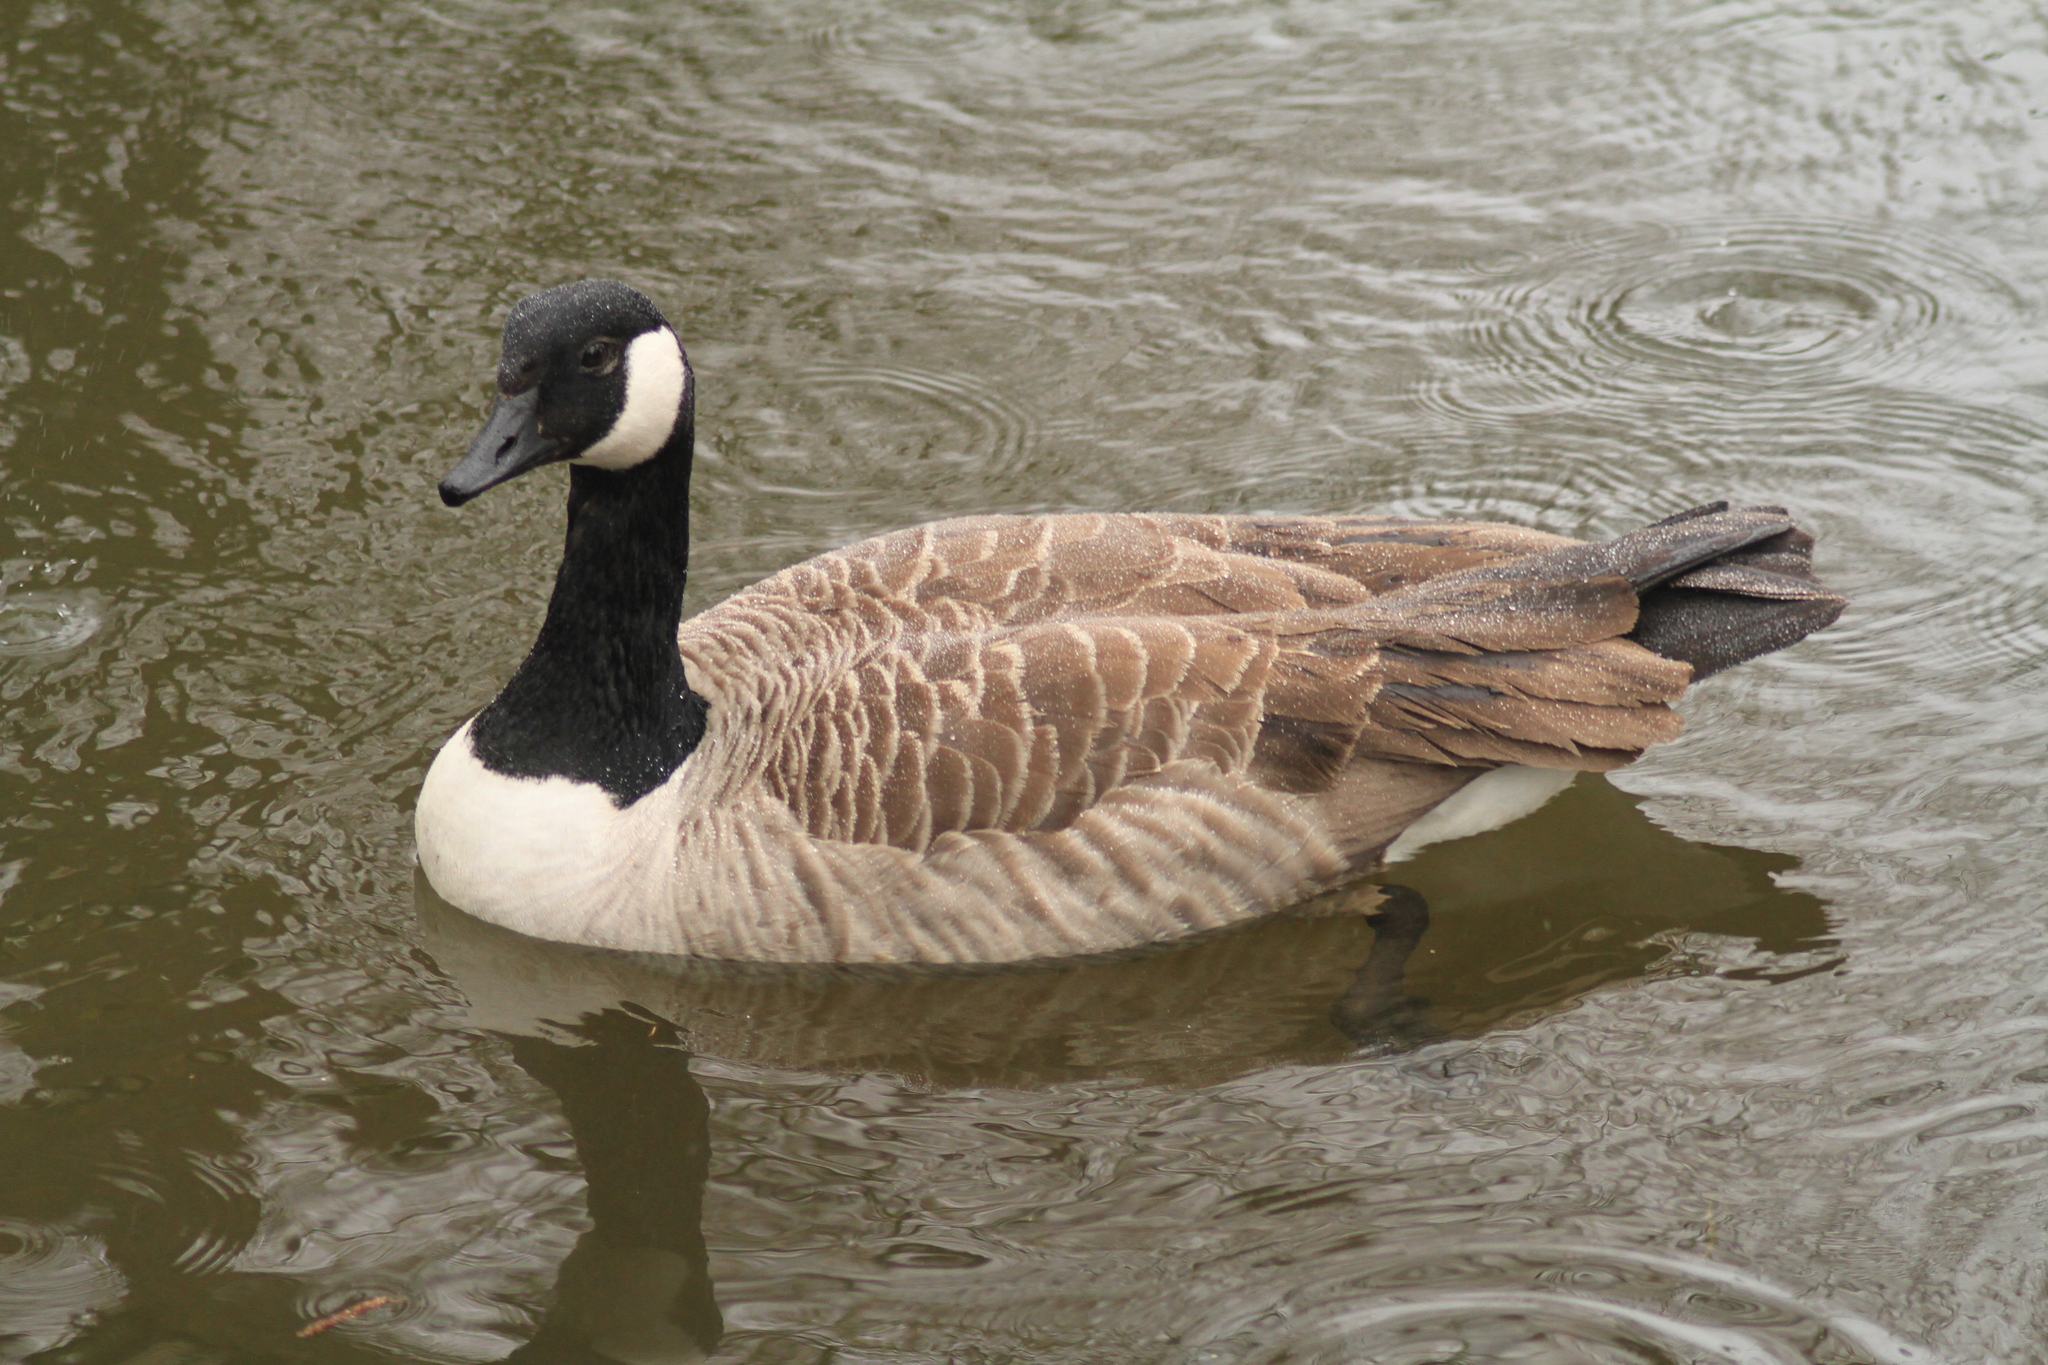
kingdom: Animalia
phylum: Chordata
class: Aves
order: Anseriformes
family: Anatidae
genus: Branta
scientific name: Branta canadensis
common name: Canada goose
